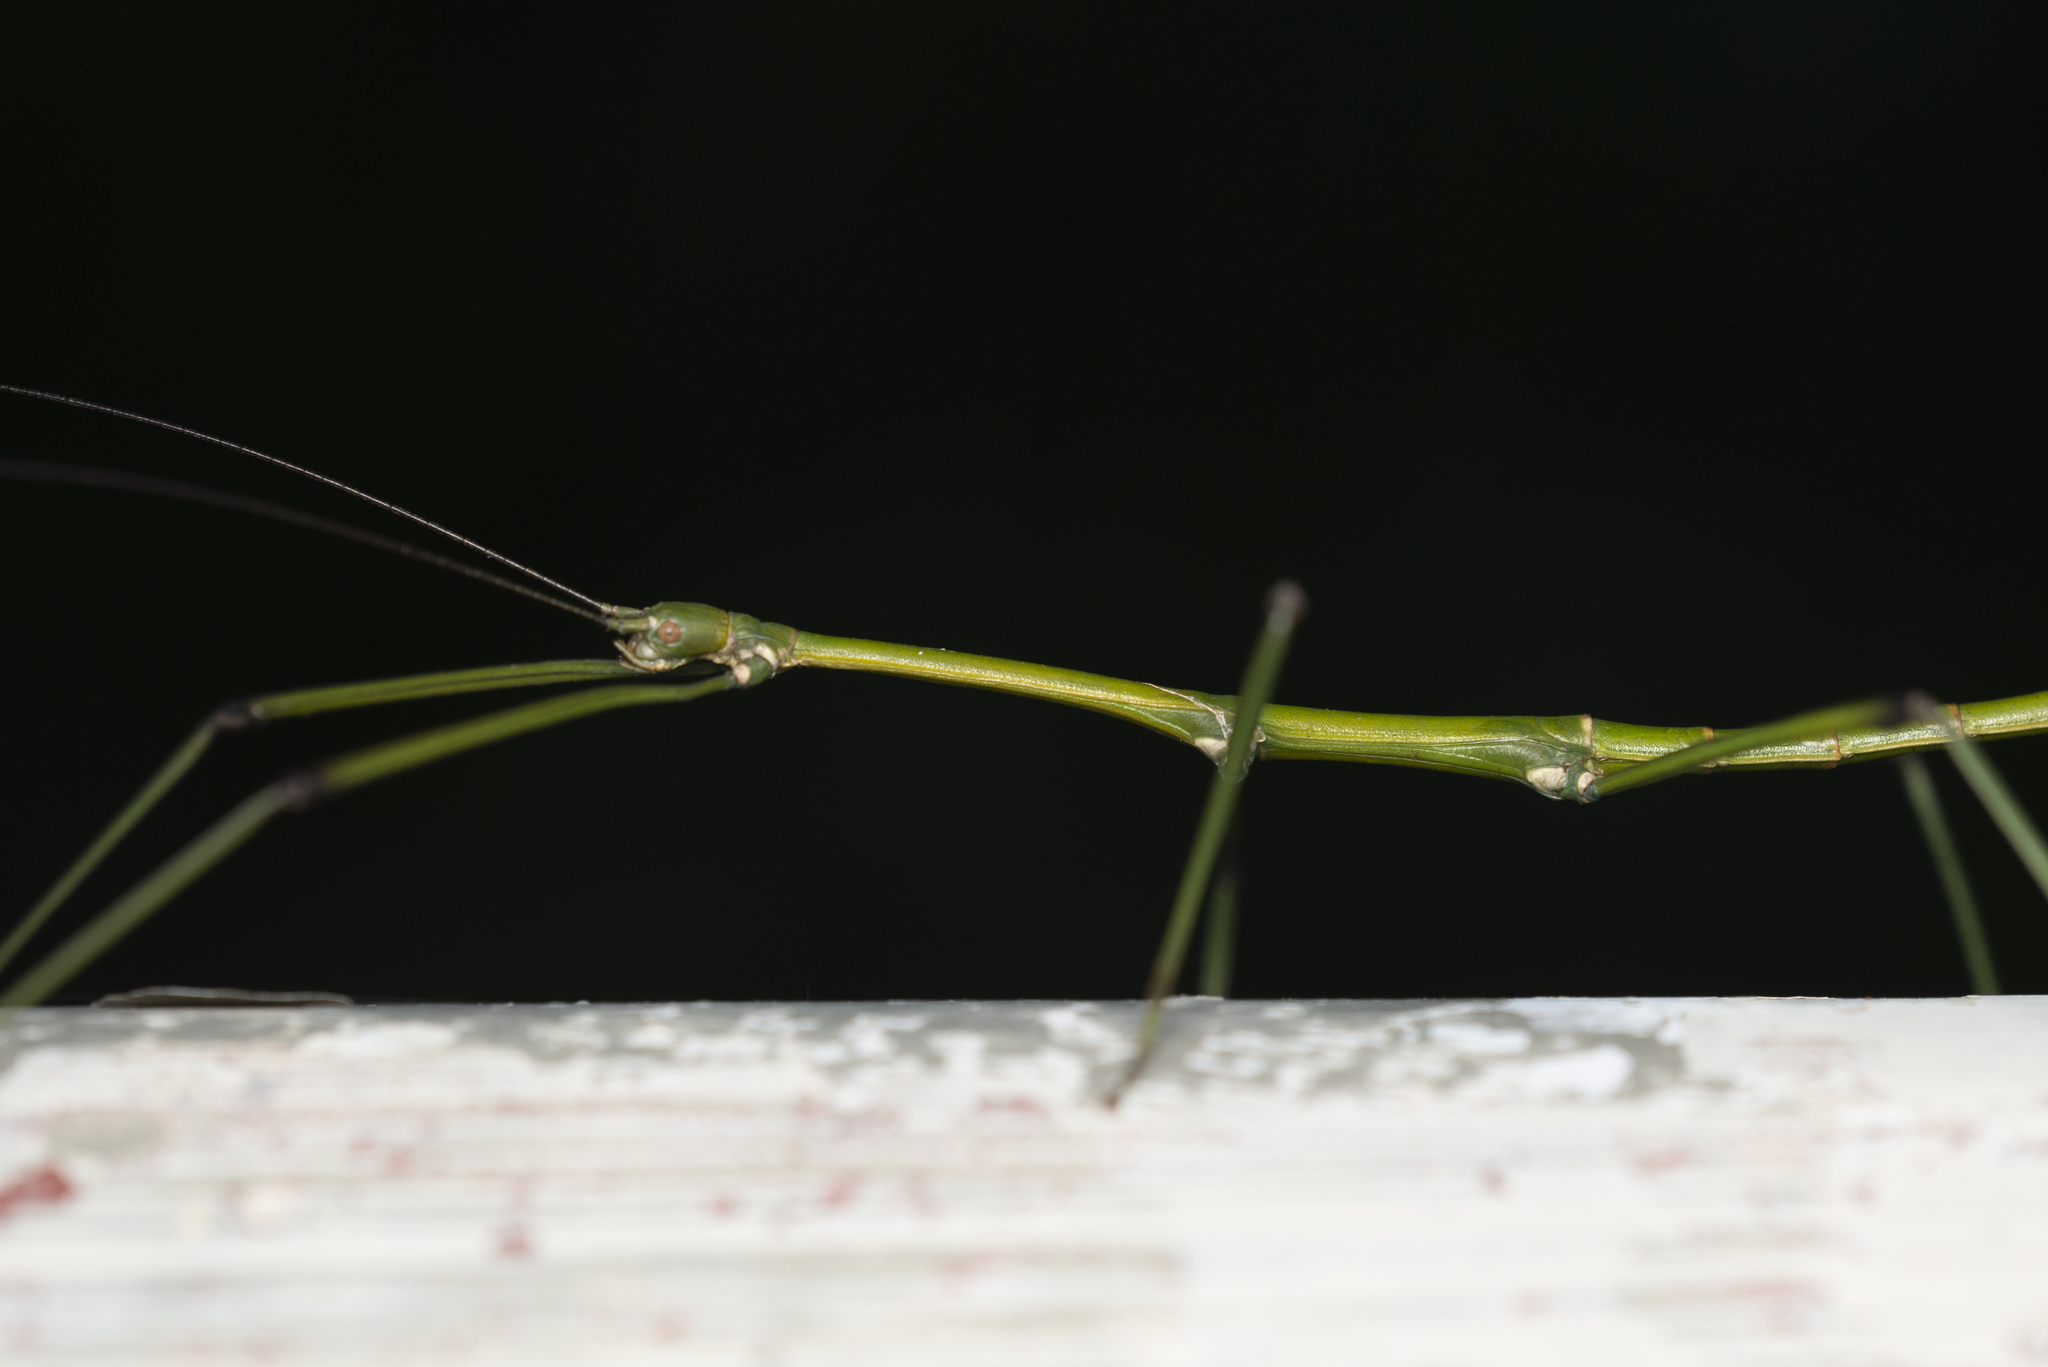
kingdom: Animalia
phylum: Arthropoda
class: Insecta
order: Phasmida
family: Lonchodidae
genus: Phraortes
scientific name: Phraortes stomphax
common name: Hong kong stick insect
